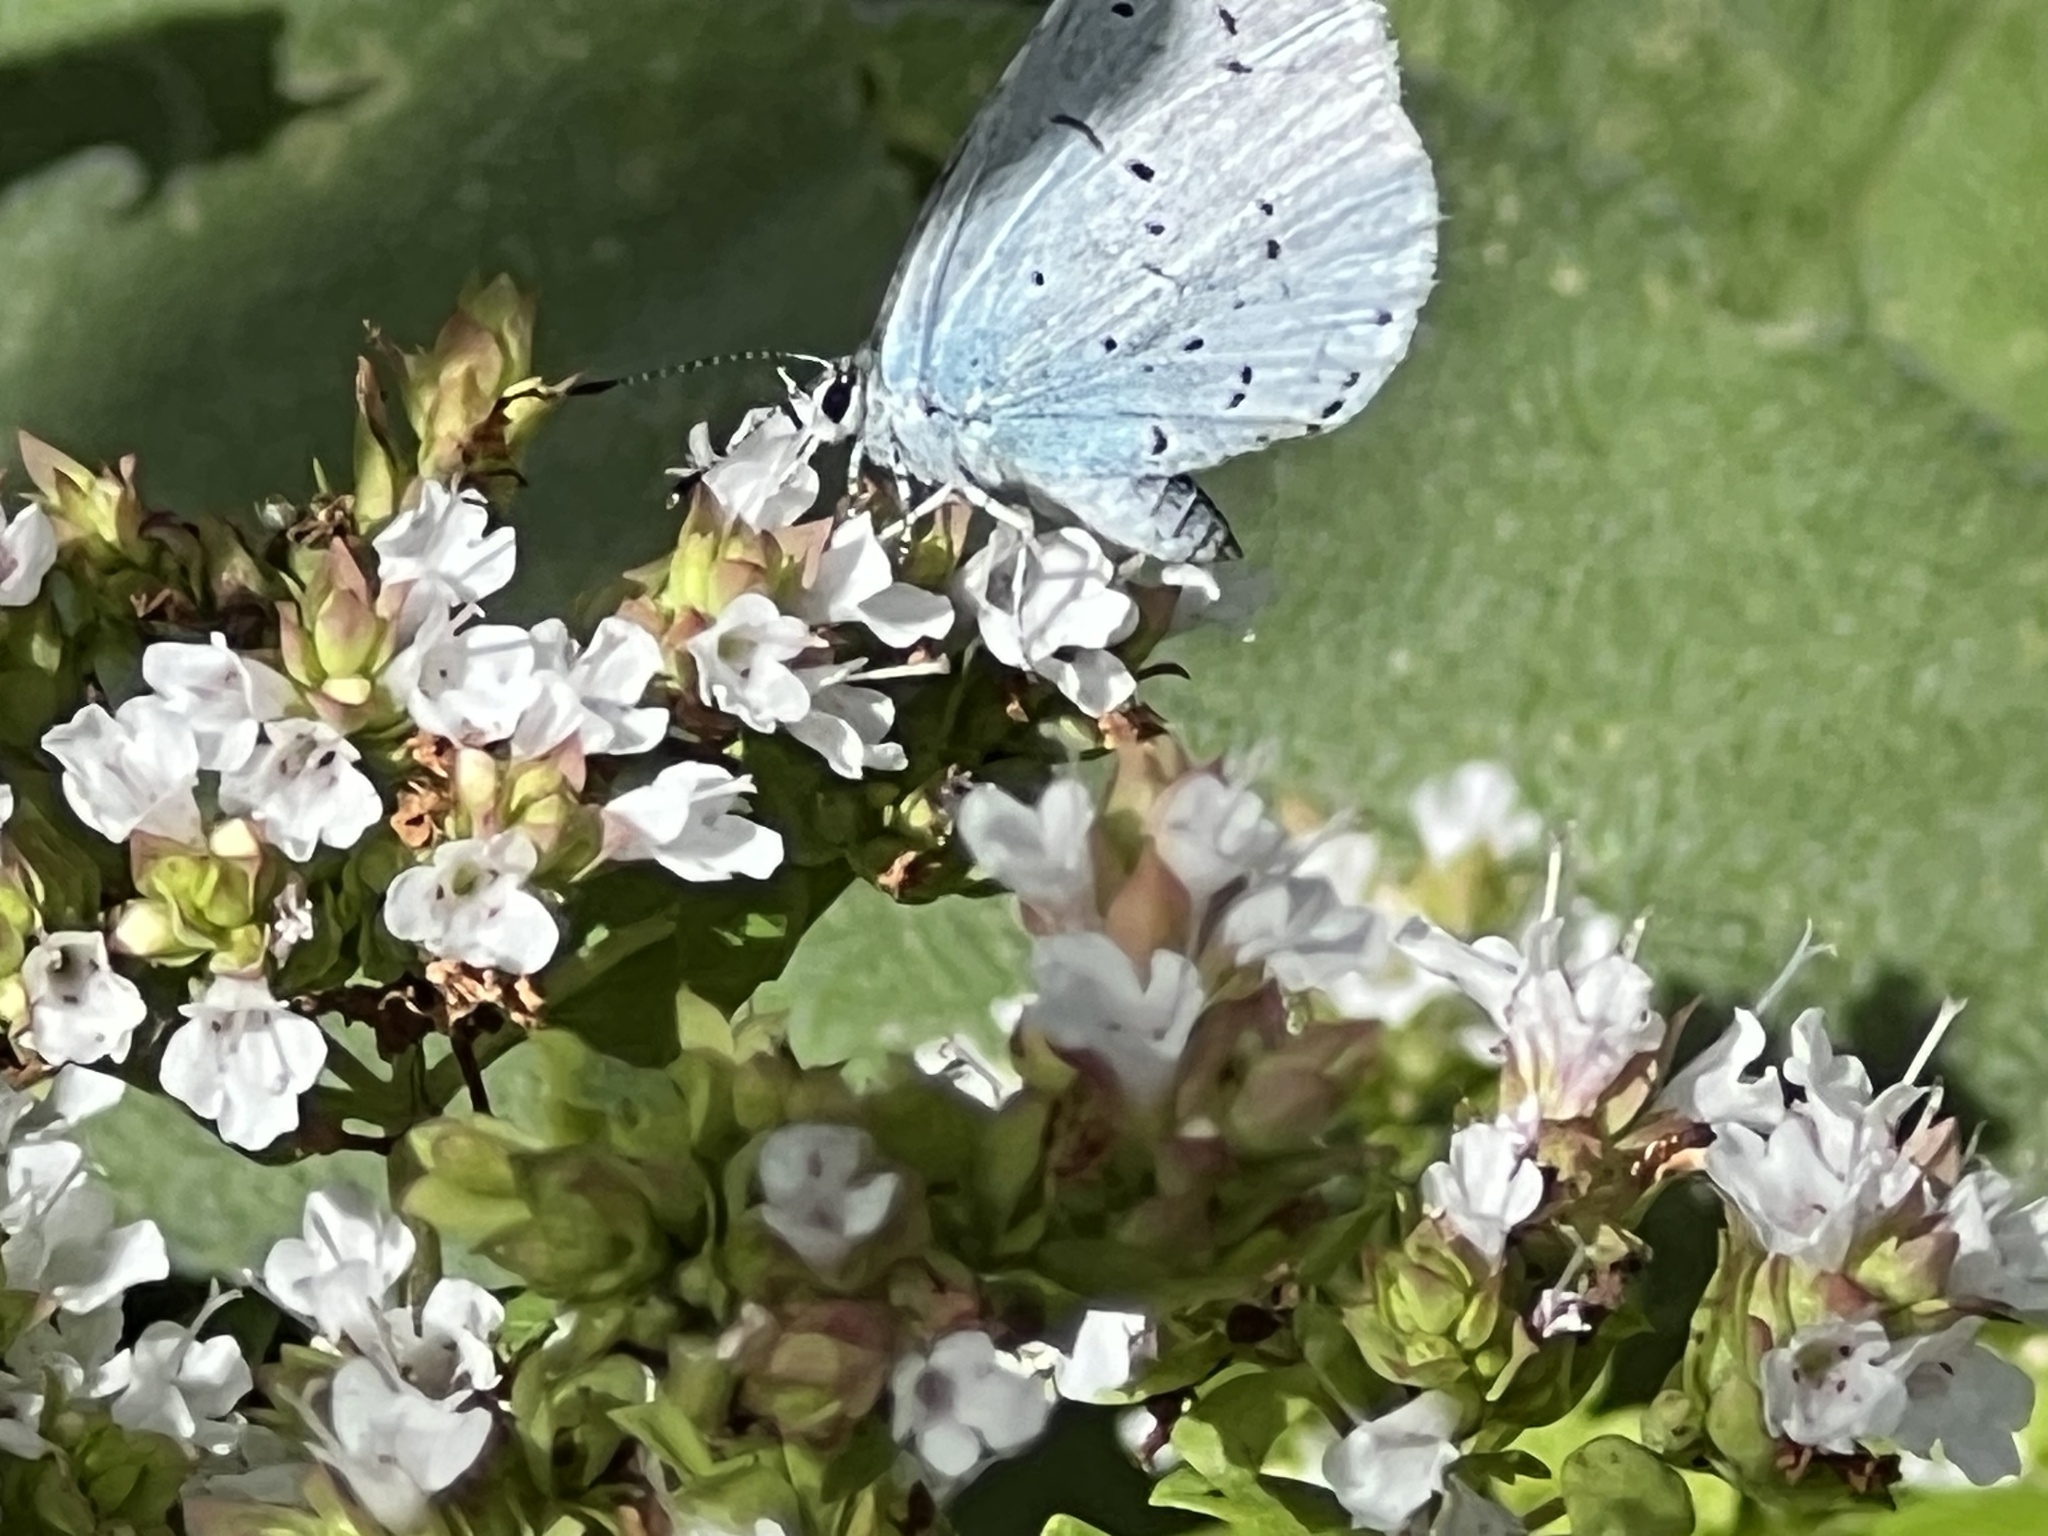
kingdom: Animalia
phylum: Arthropoda
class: Insecta
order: Lepidoptera
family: Lycaenidae
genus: Celastrina
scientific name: Celastrina argiolus
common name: Holly blue
